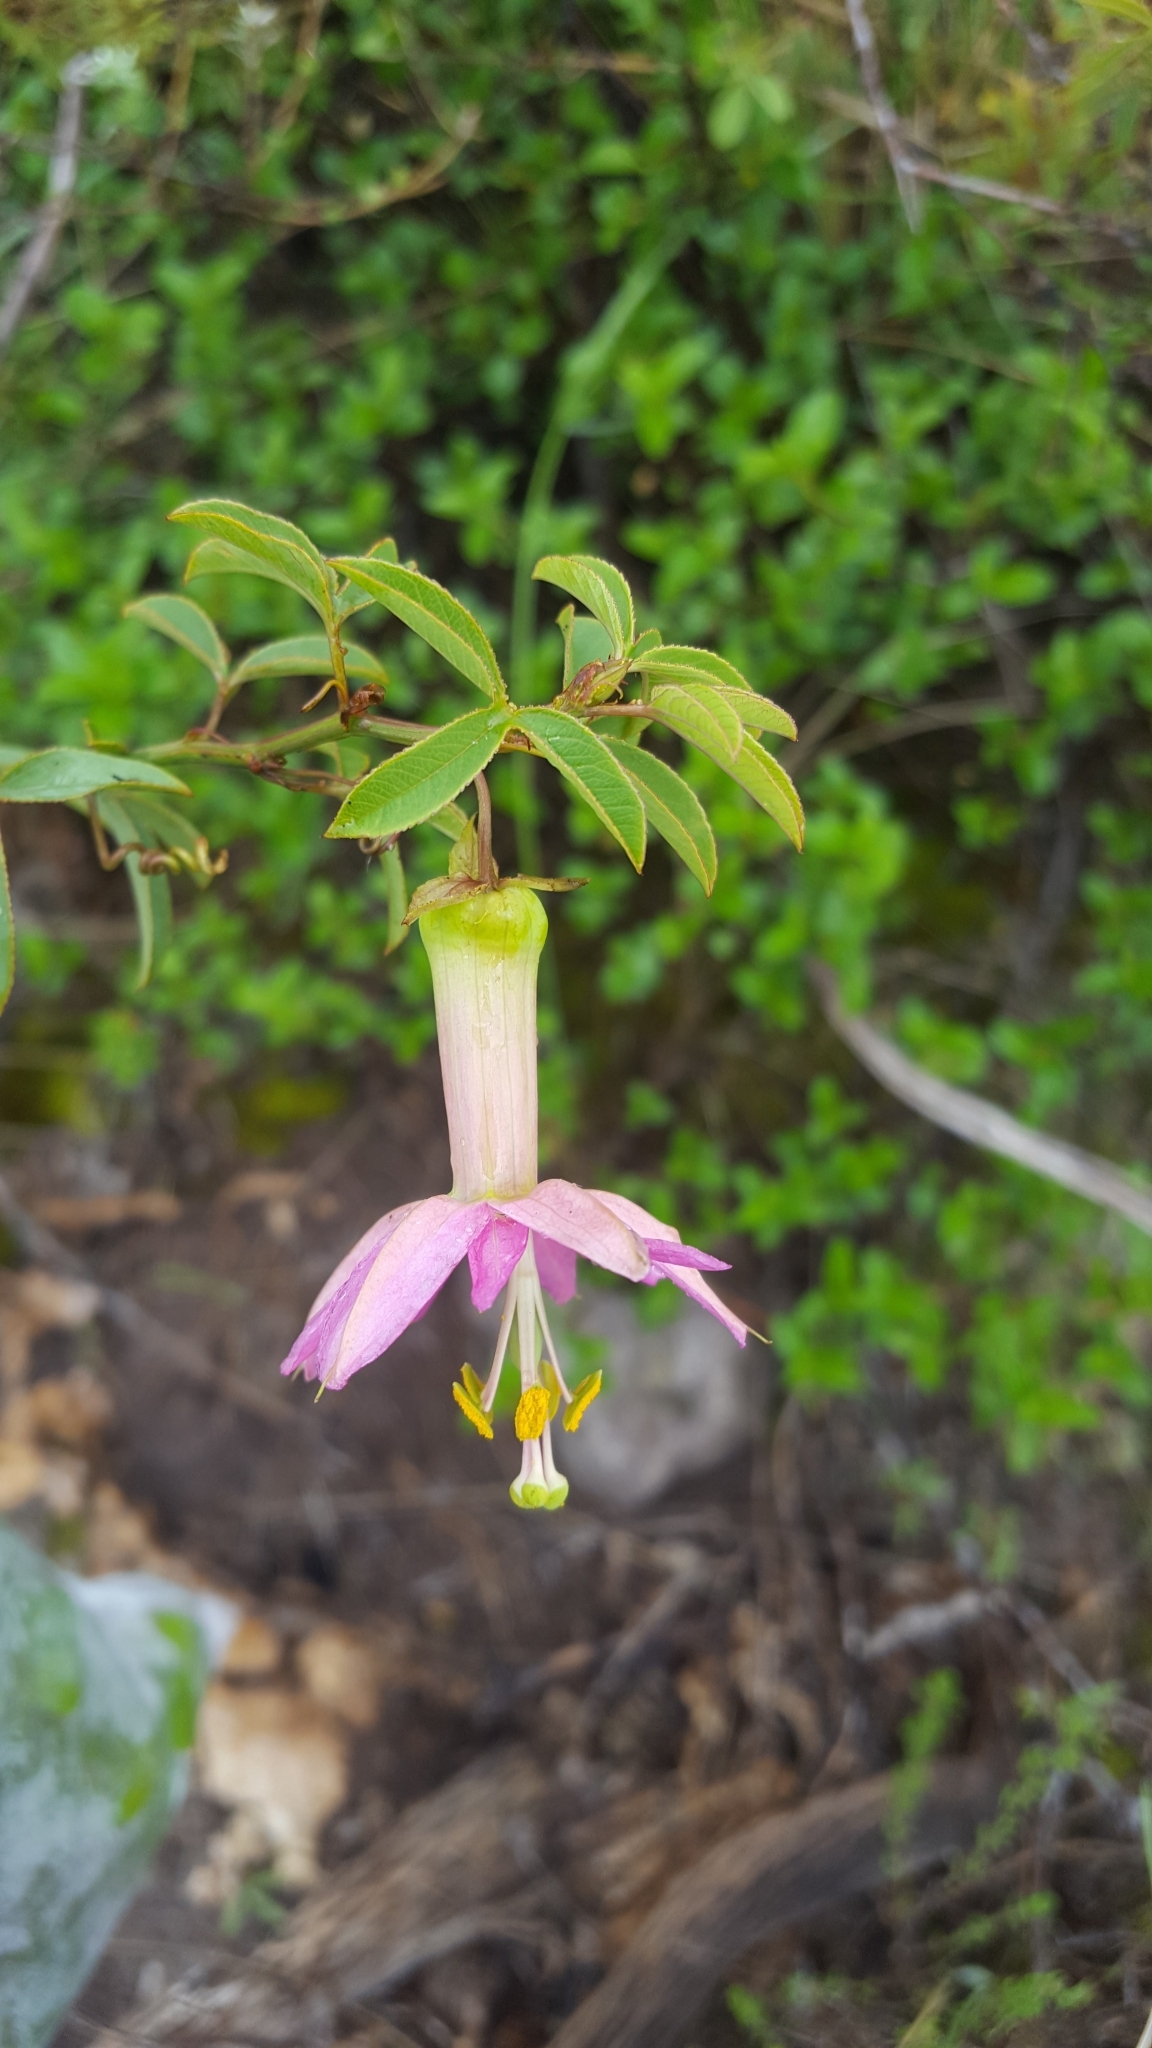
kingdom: Plantae
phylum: Tracheophyta
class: Magnoliopsida
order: Malpighiales
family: Passifloraceae
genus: Passiflora
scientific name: Passiflora gracilens
